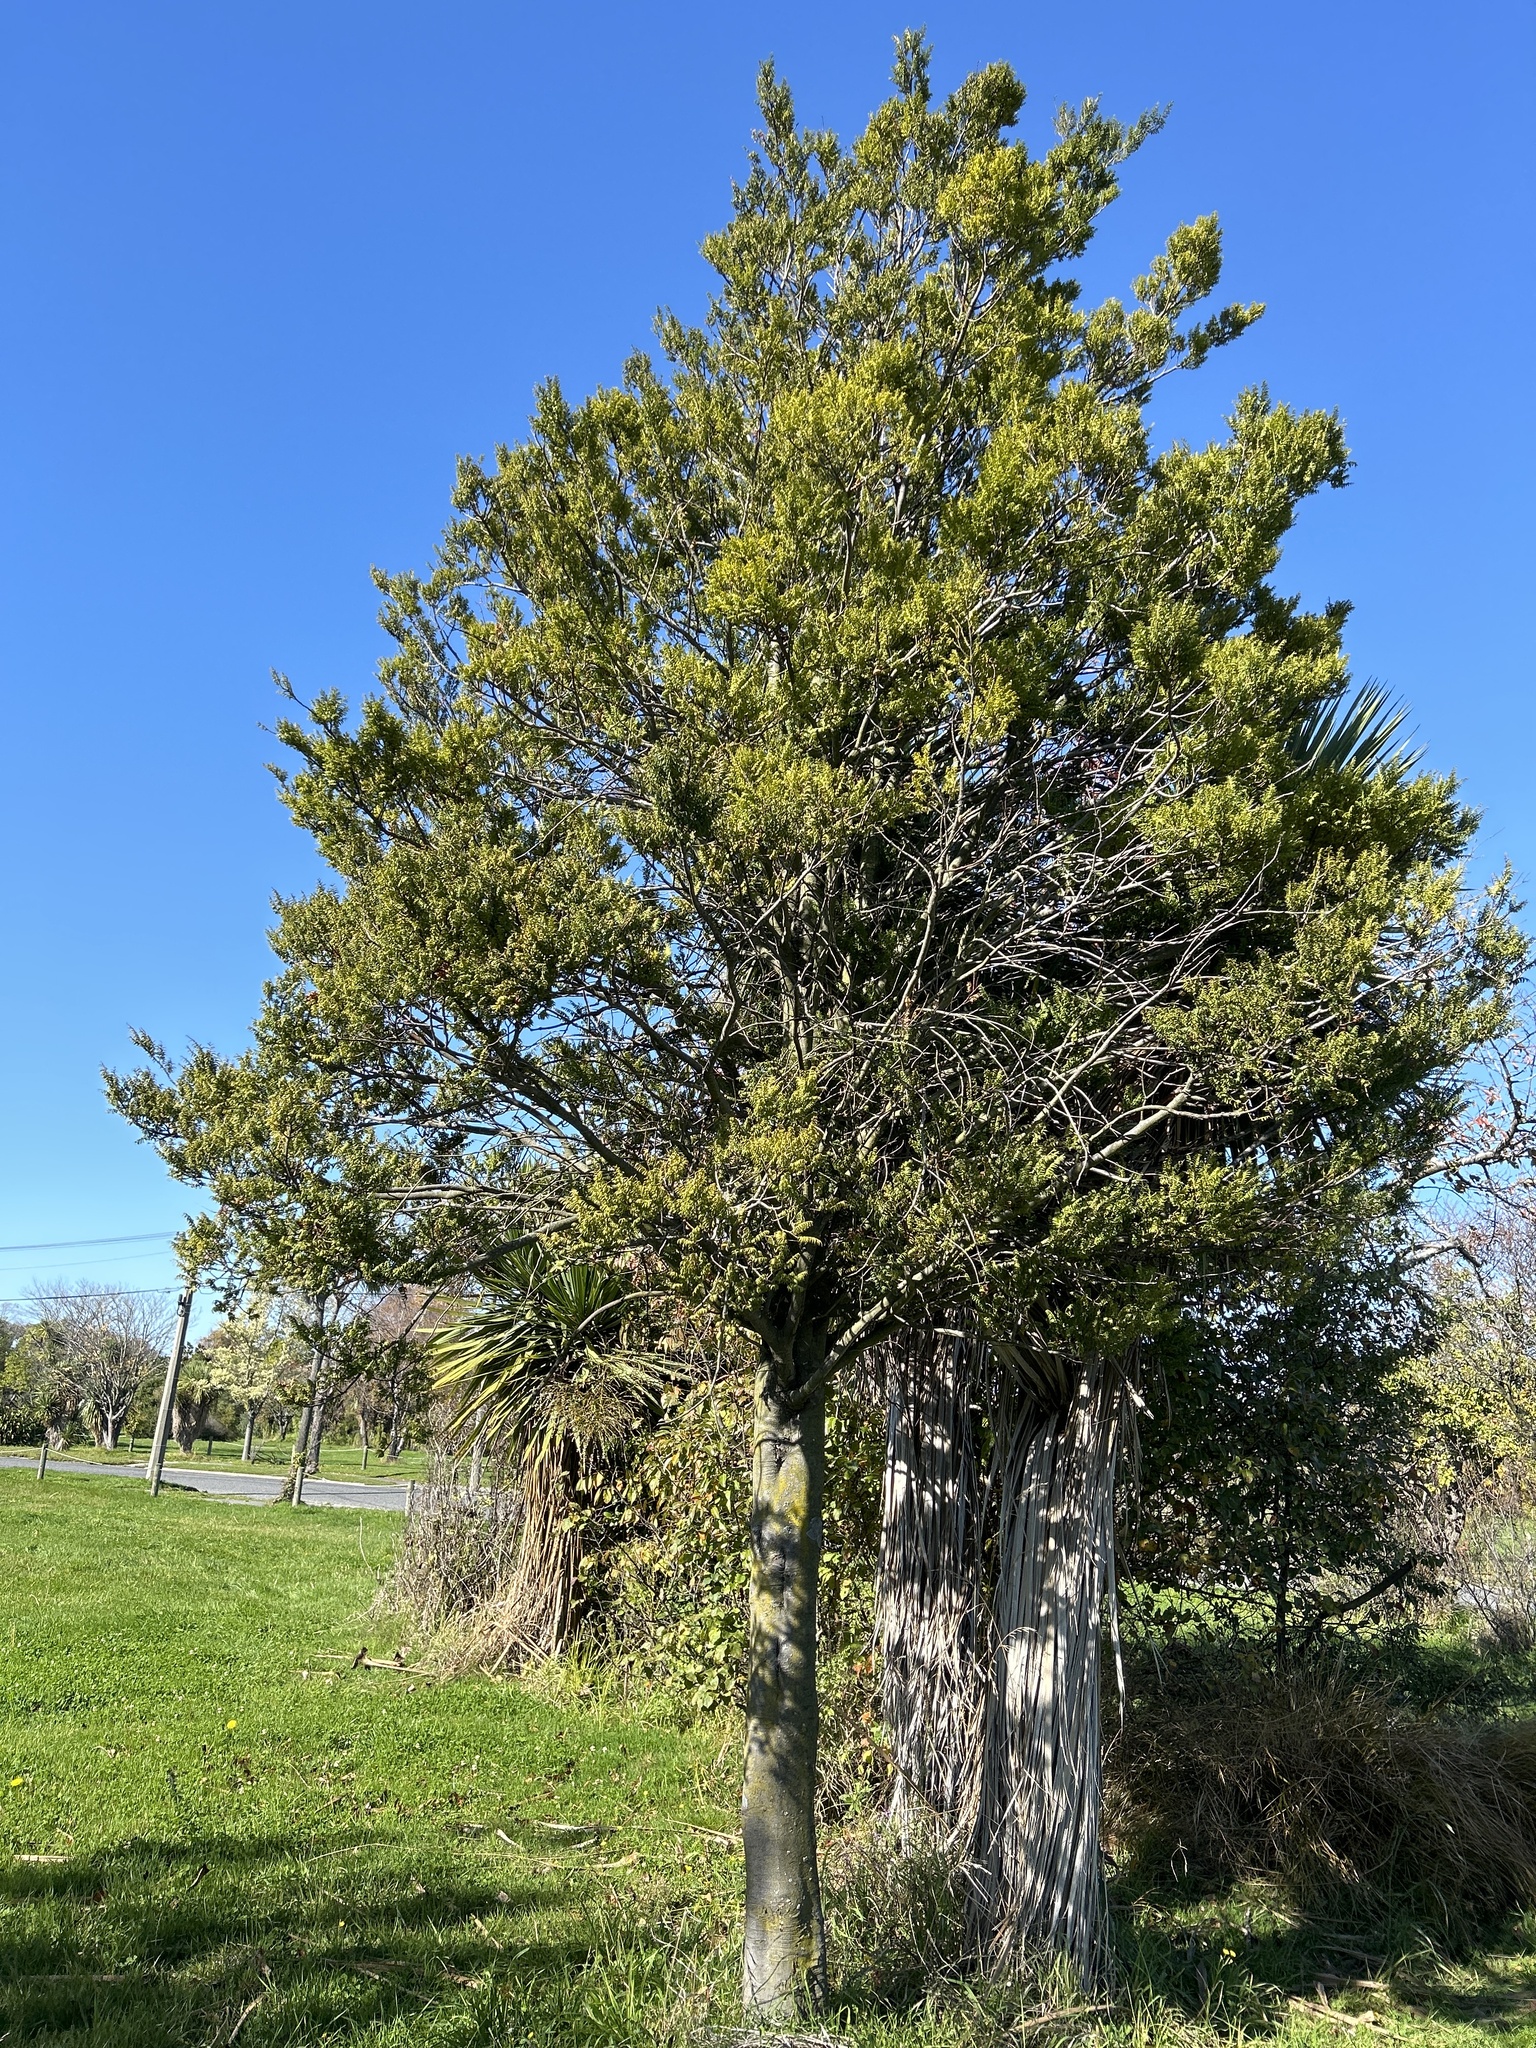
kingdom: Plantae
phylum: Tracheophyta
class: Pinopsida
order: Pinales
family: Podocarpaceae
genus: Prumnopitys
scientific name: Prumnopitys ferruginea
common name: Brown pine
